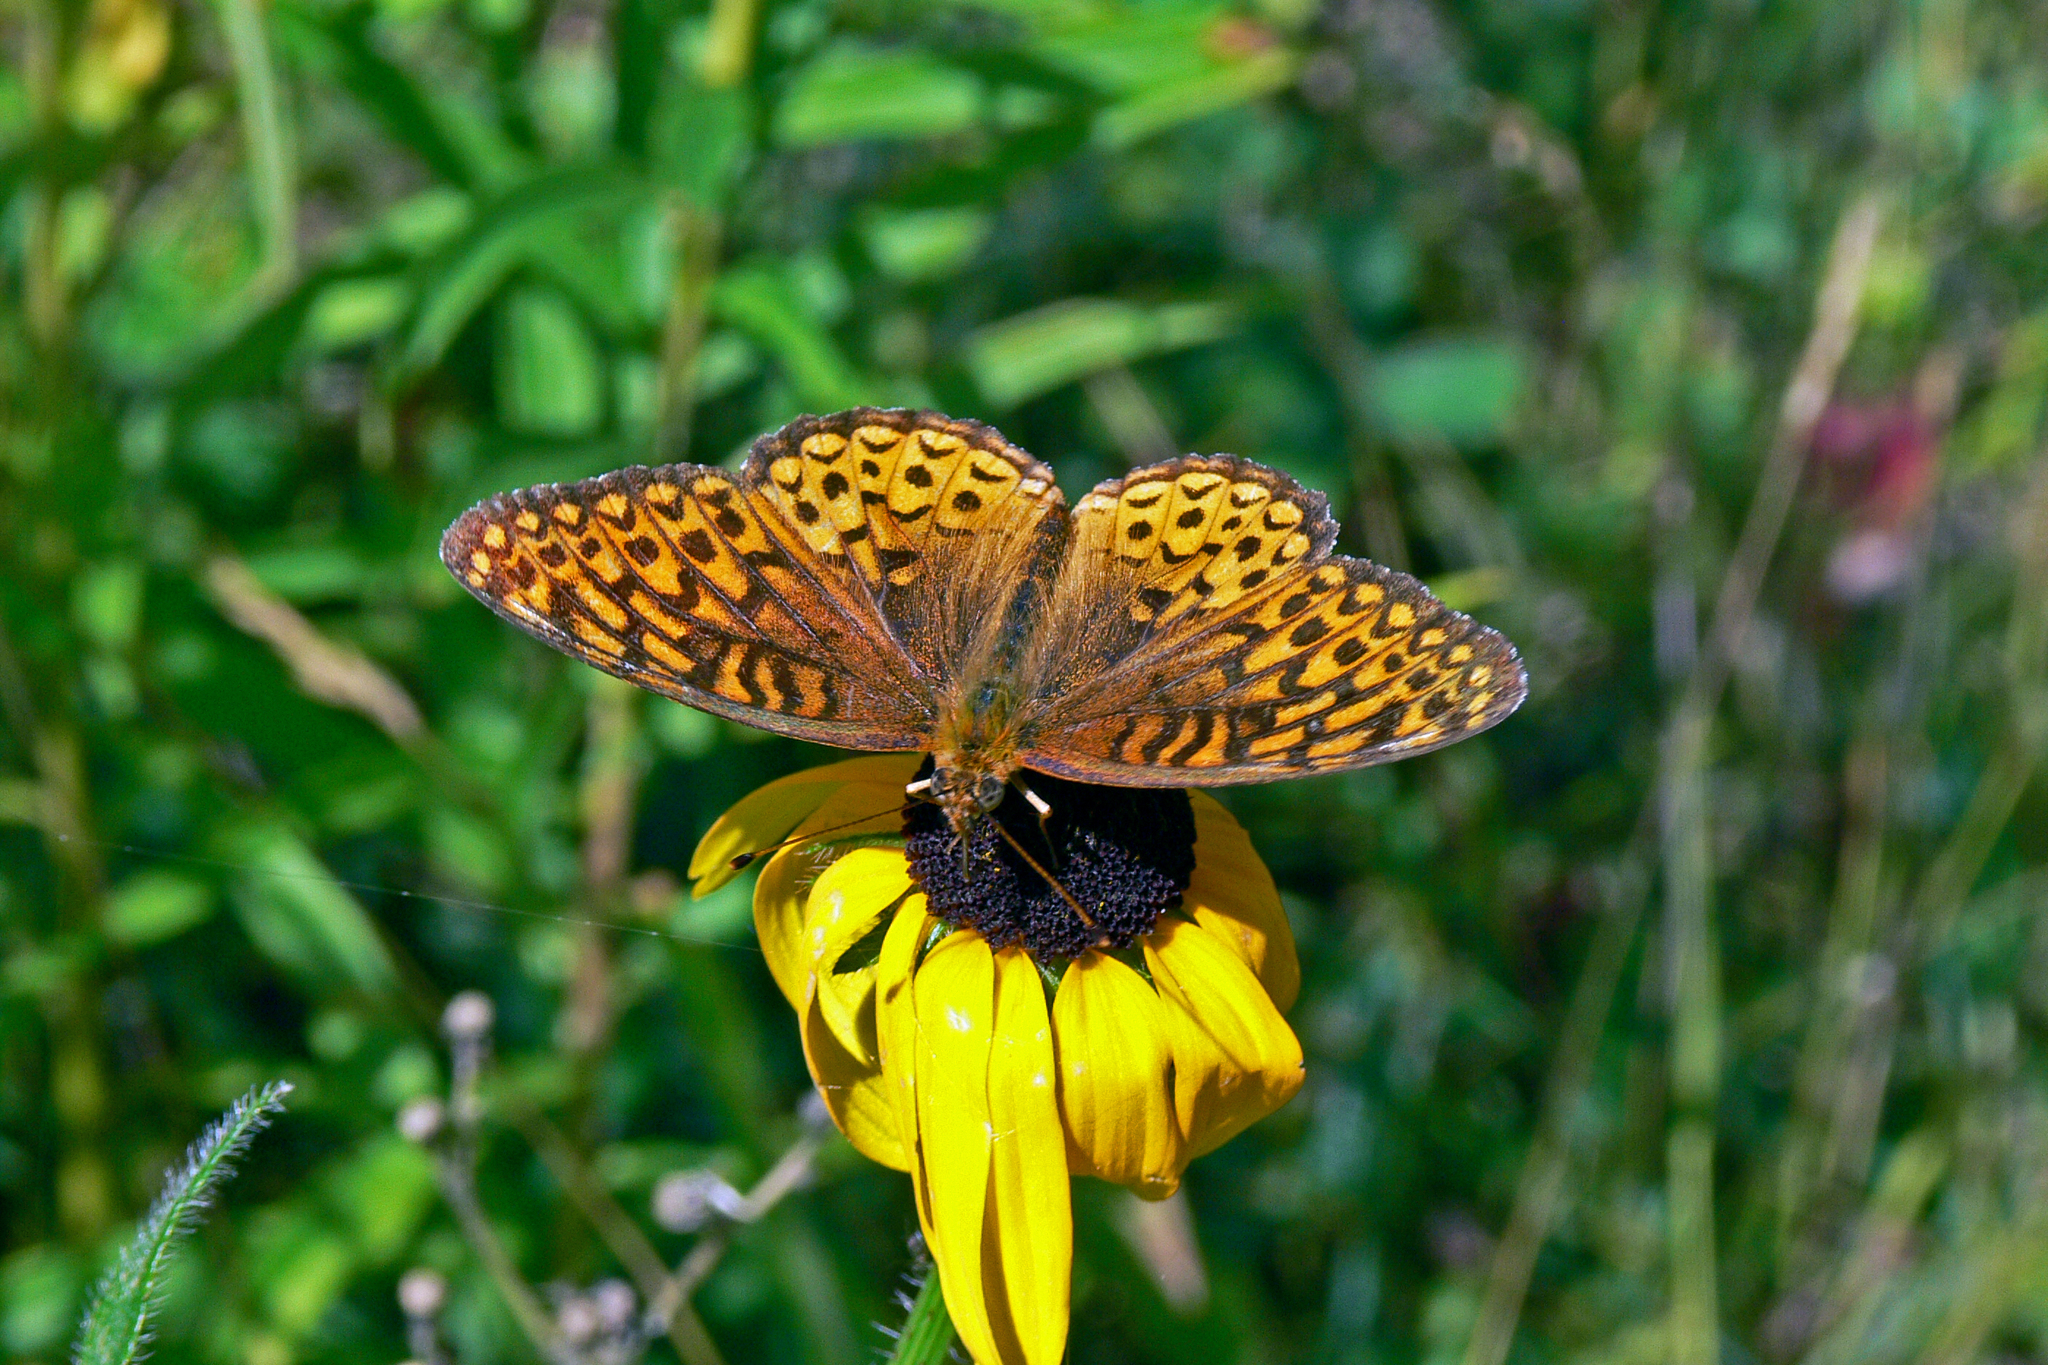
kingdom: Animalia
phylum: Arthropoda
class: Insecta
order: Lepidoptera
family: Nymphalidae
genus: Speyeria
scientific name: Speyeria atlantis
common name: Atlantis fritillary
